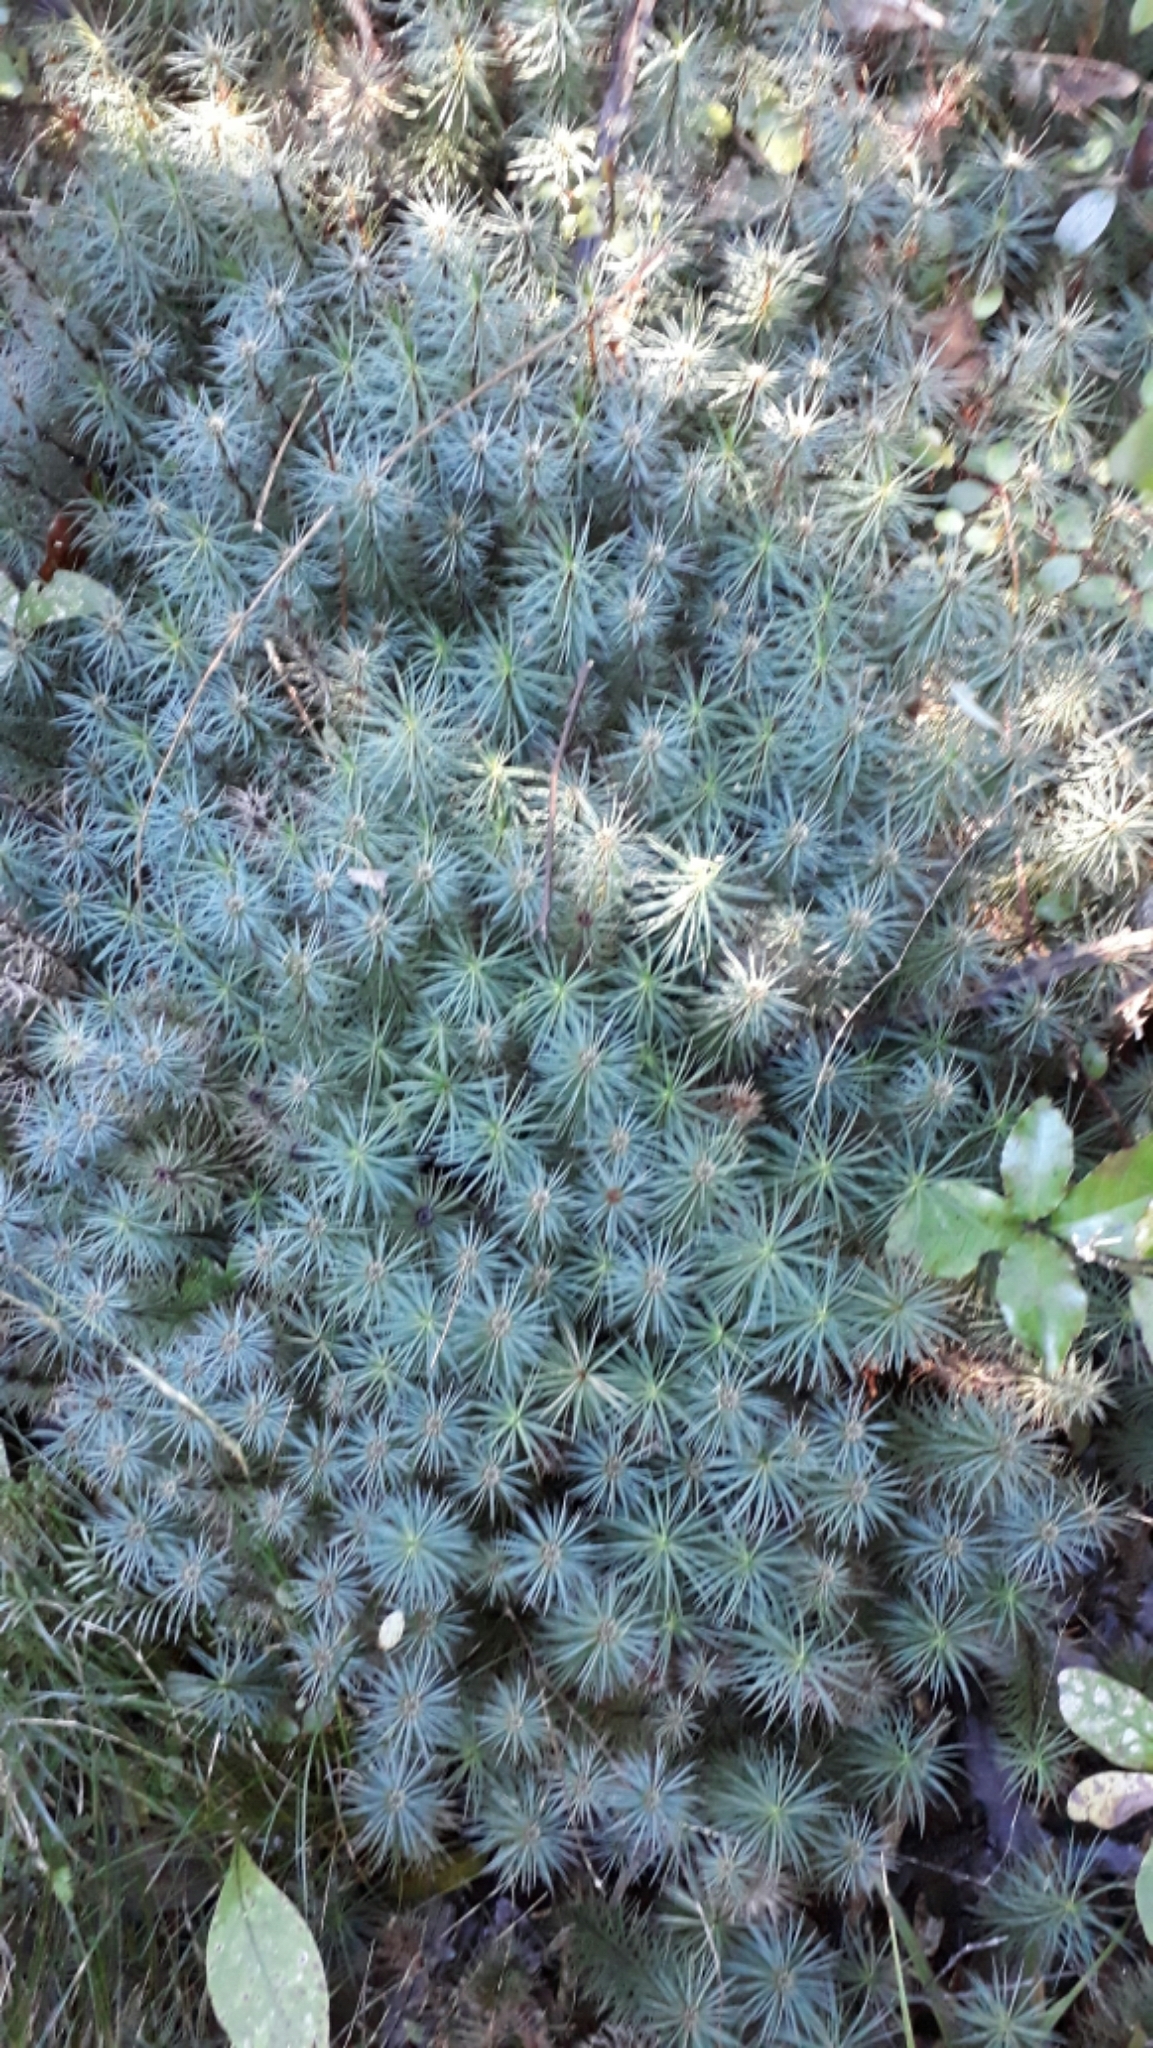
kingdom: Plantae
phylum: Bryophyta
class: Polytrichopsida
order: Polytrichales
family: Polytrichaceae
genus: Dawsonia
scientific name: Dawsonia superba
